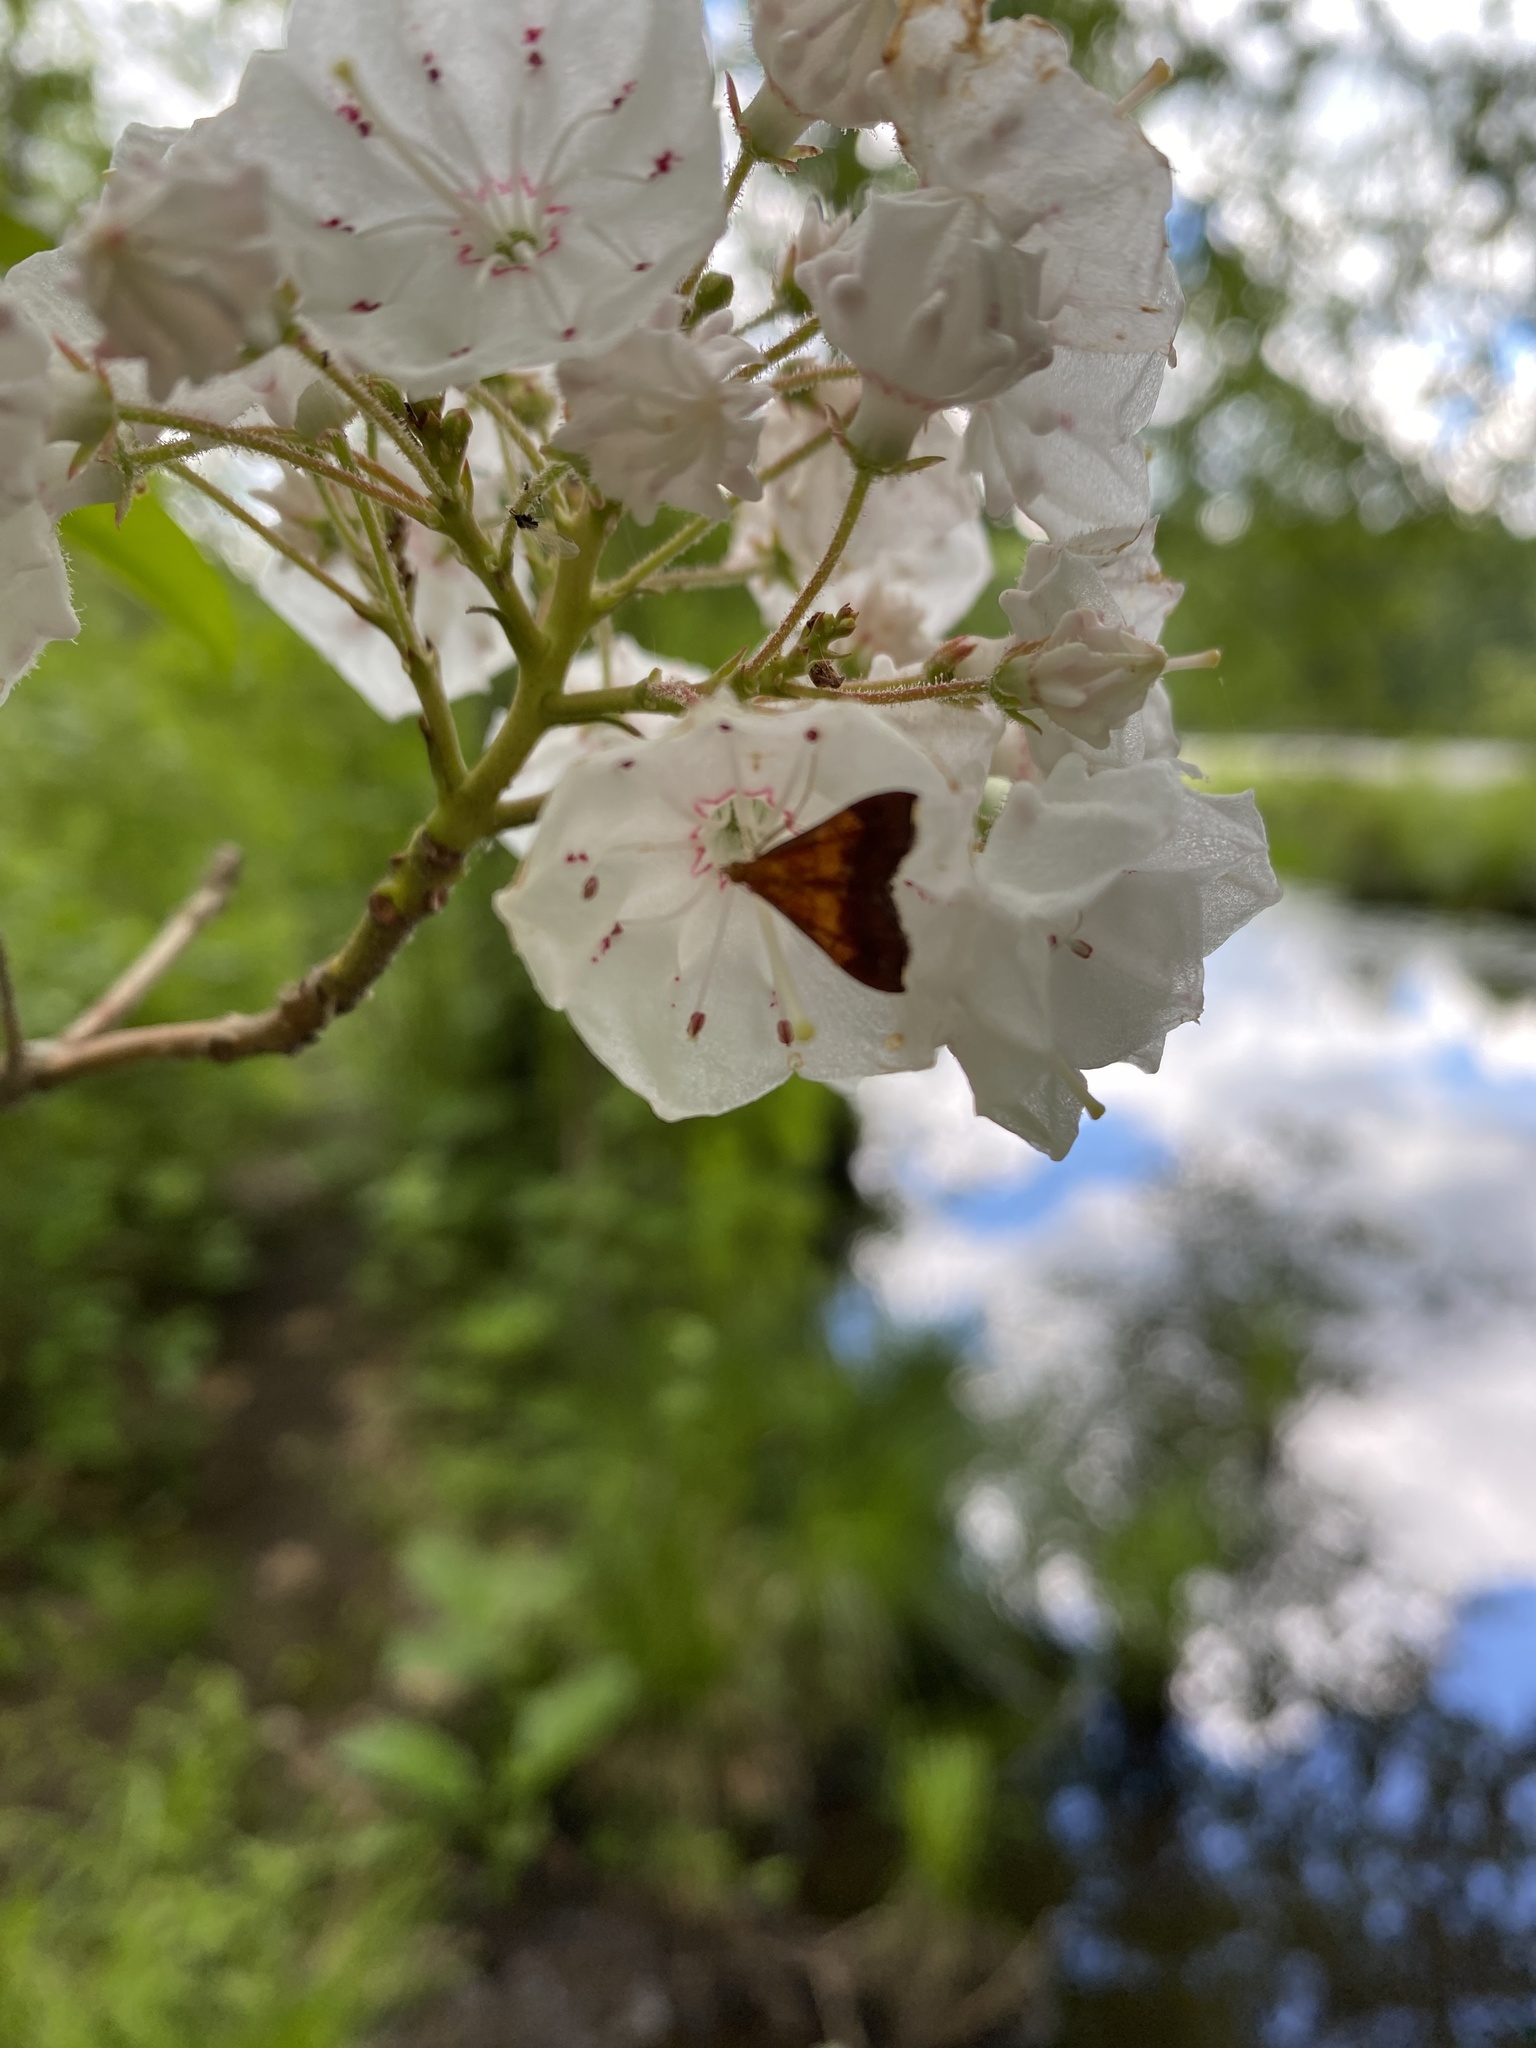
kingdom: Animalia
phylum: Arthropoda
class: Insecta
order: Lepidoptera
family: Crambidae
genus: Pyrausta
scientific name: Pyrausta bicoloralis
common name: Bicolored pyrausta moth
